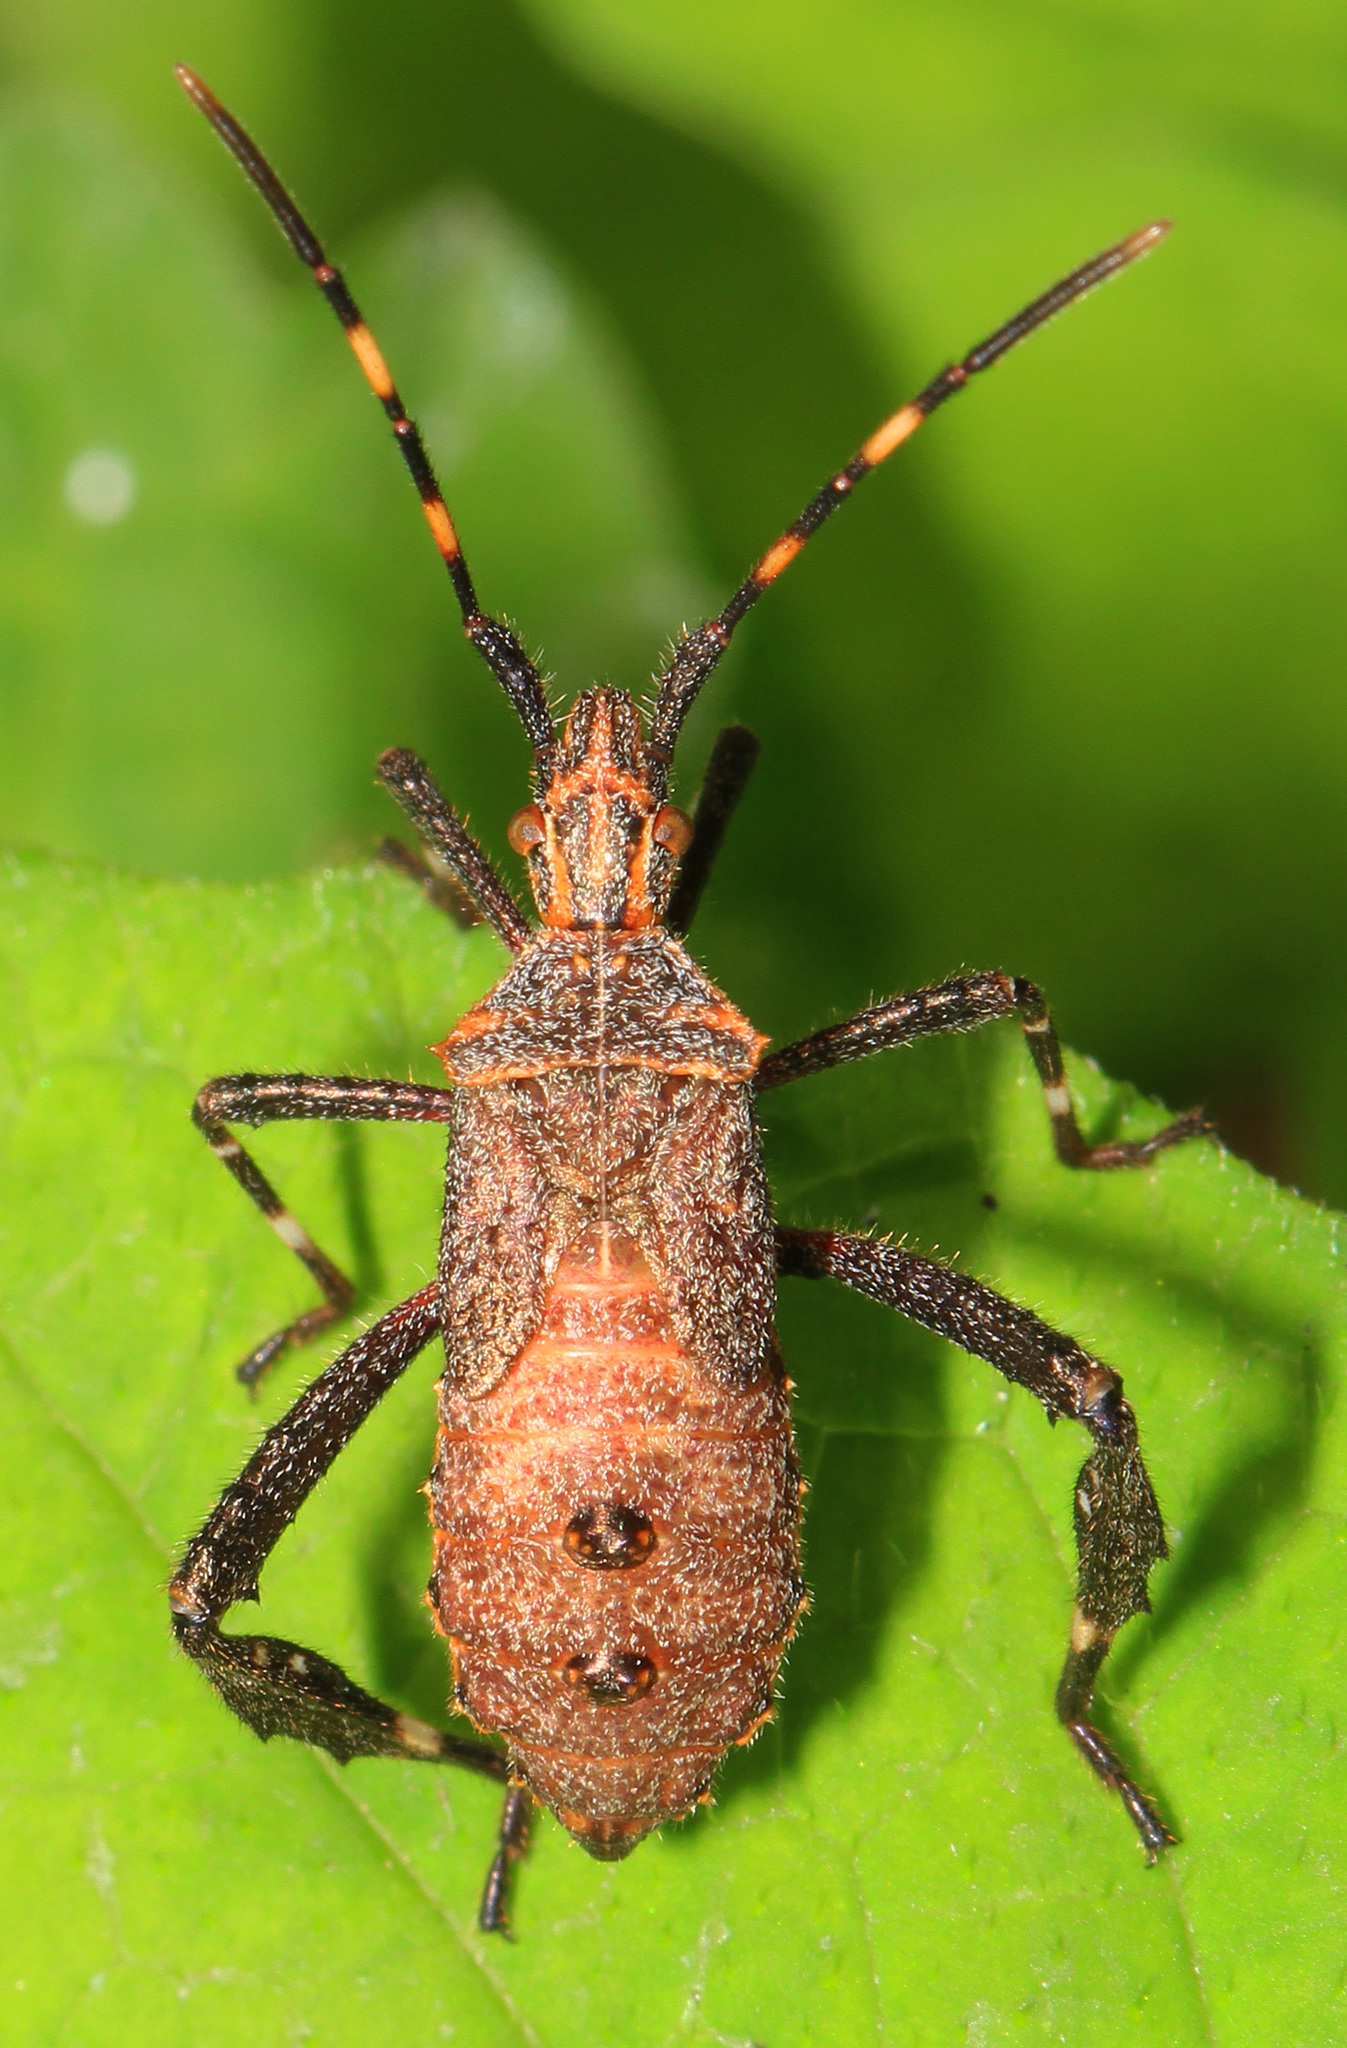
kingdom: Animalia
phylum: Arthropoda
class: Insecta
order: Hemiptera
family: Coreidae
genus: Leptoglossus
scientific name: Leptoglossus gonagra
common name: Citron bug
